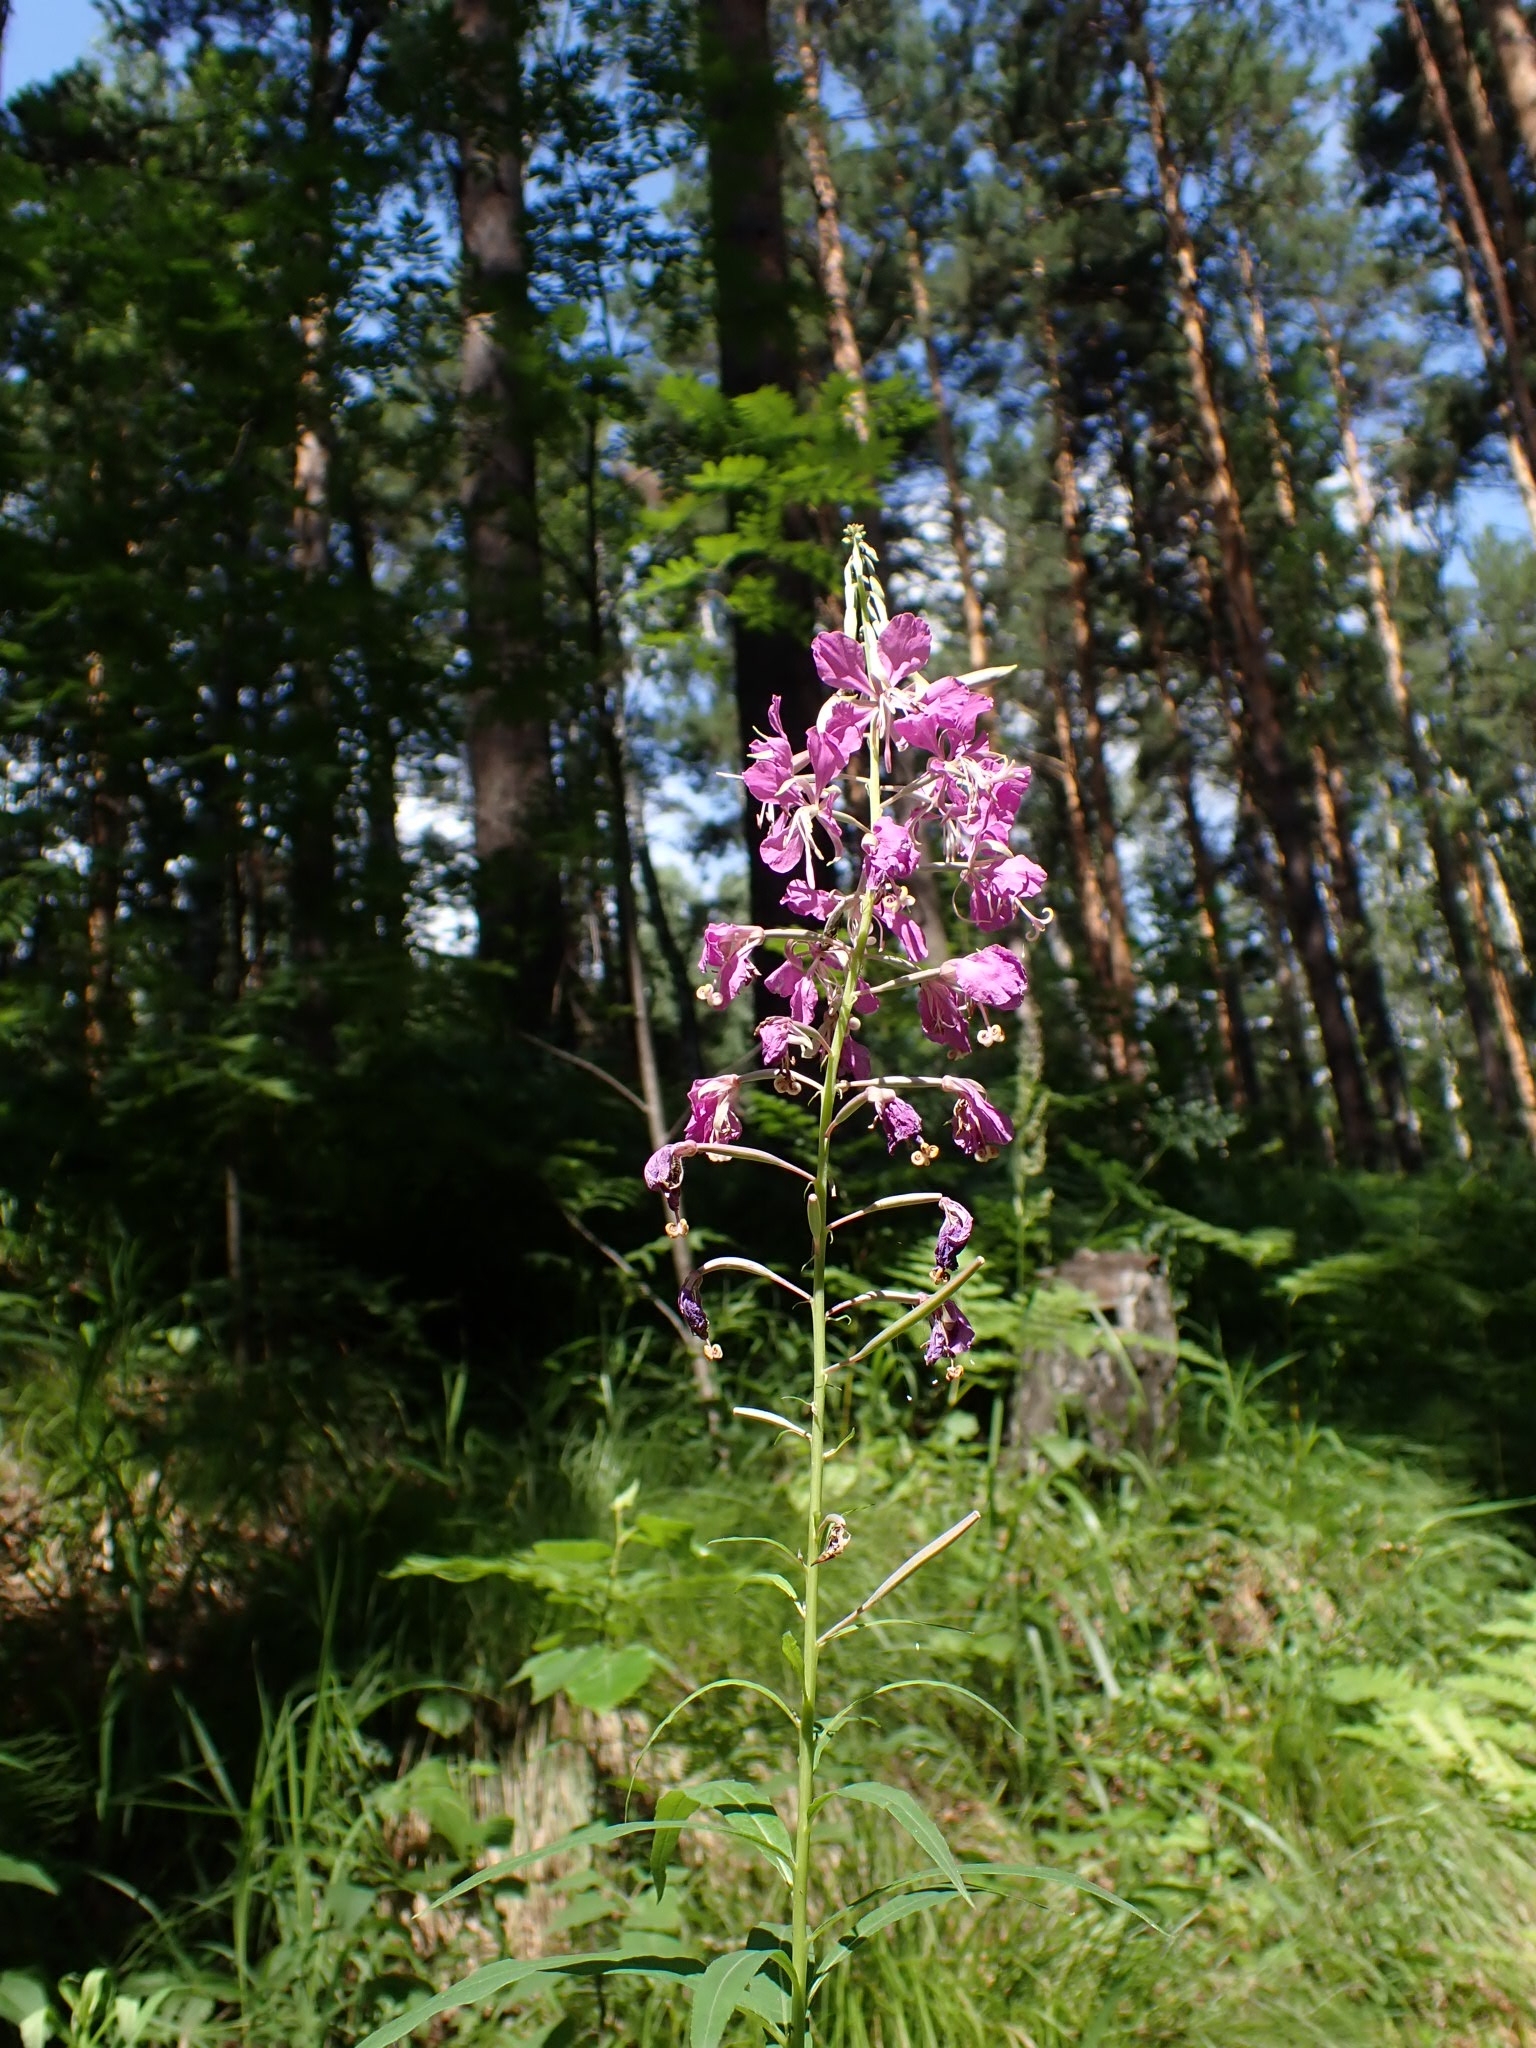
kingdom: Plantae
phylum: Tracheophyta
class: Magnoliopsida
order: Myrtales
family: Onagraceae
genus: Chamaenerion
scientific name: Chamaenerion angustifolium
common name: Fireweed
